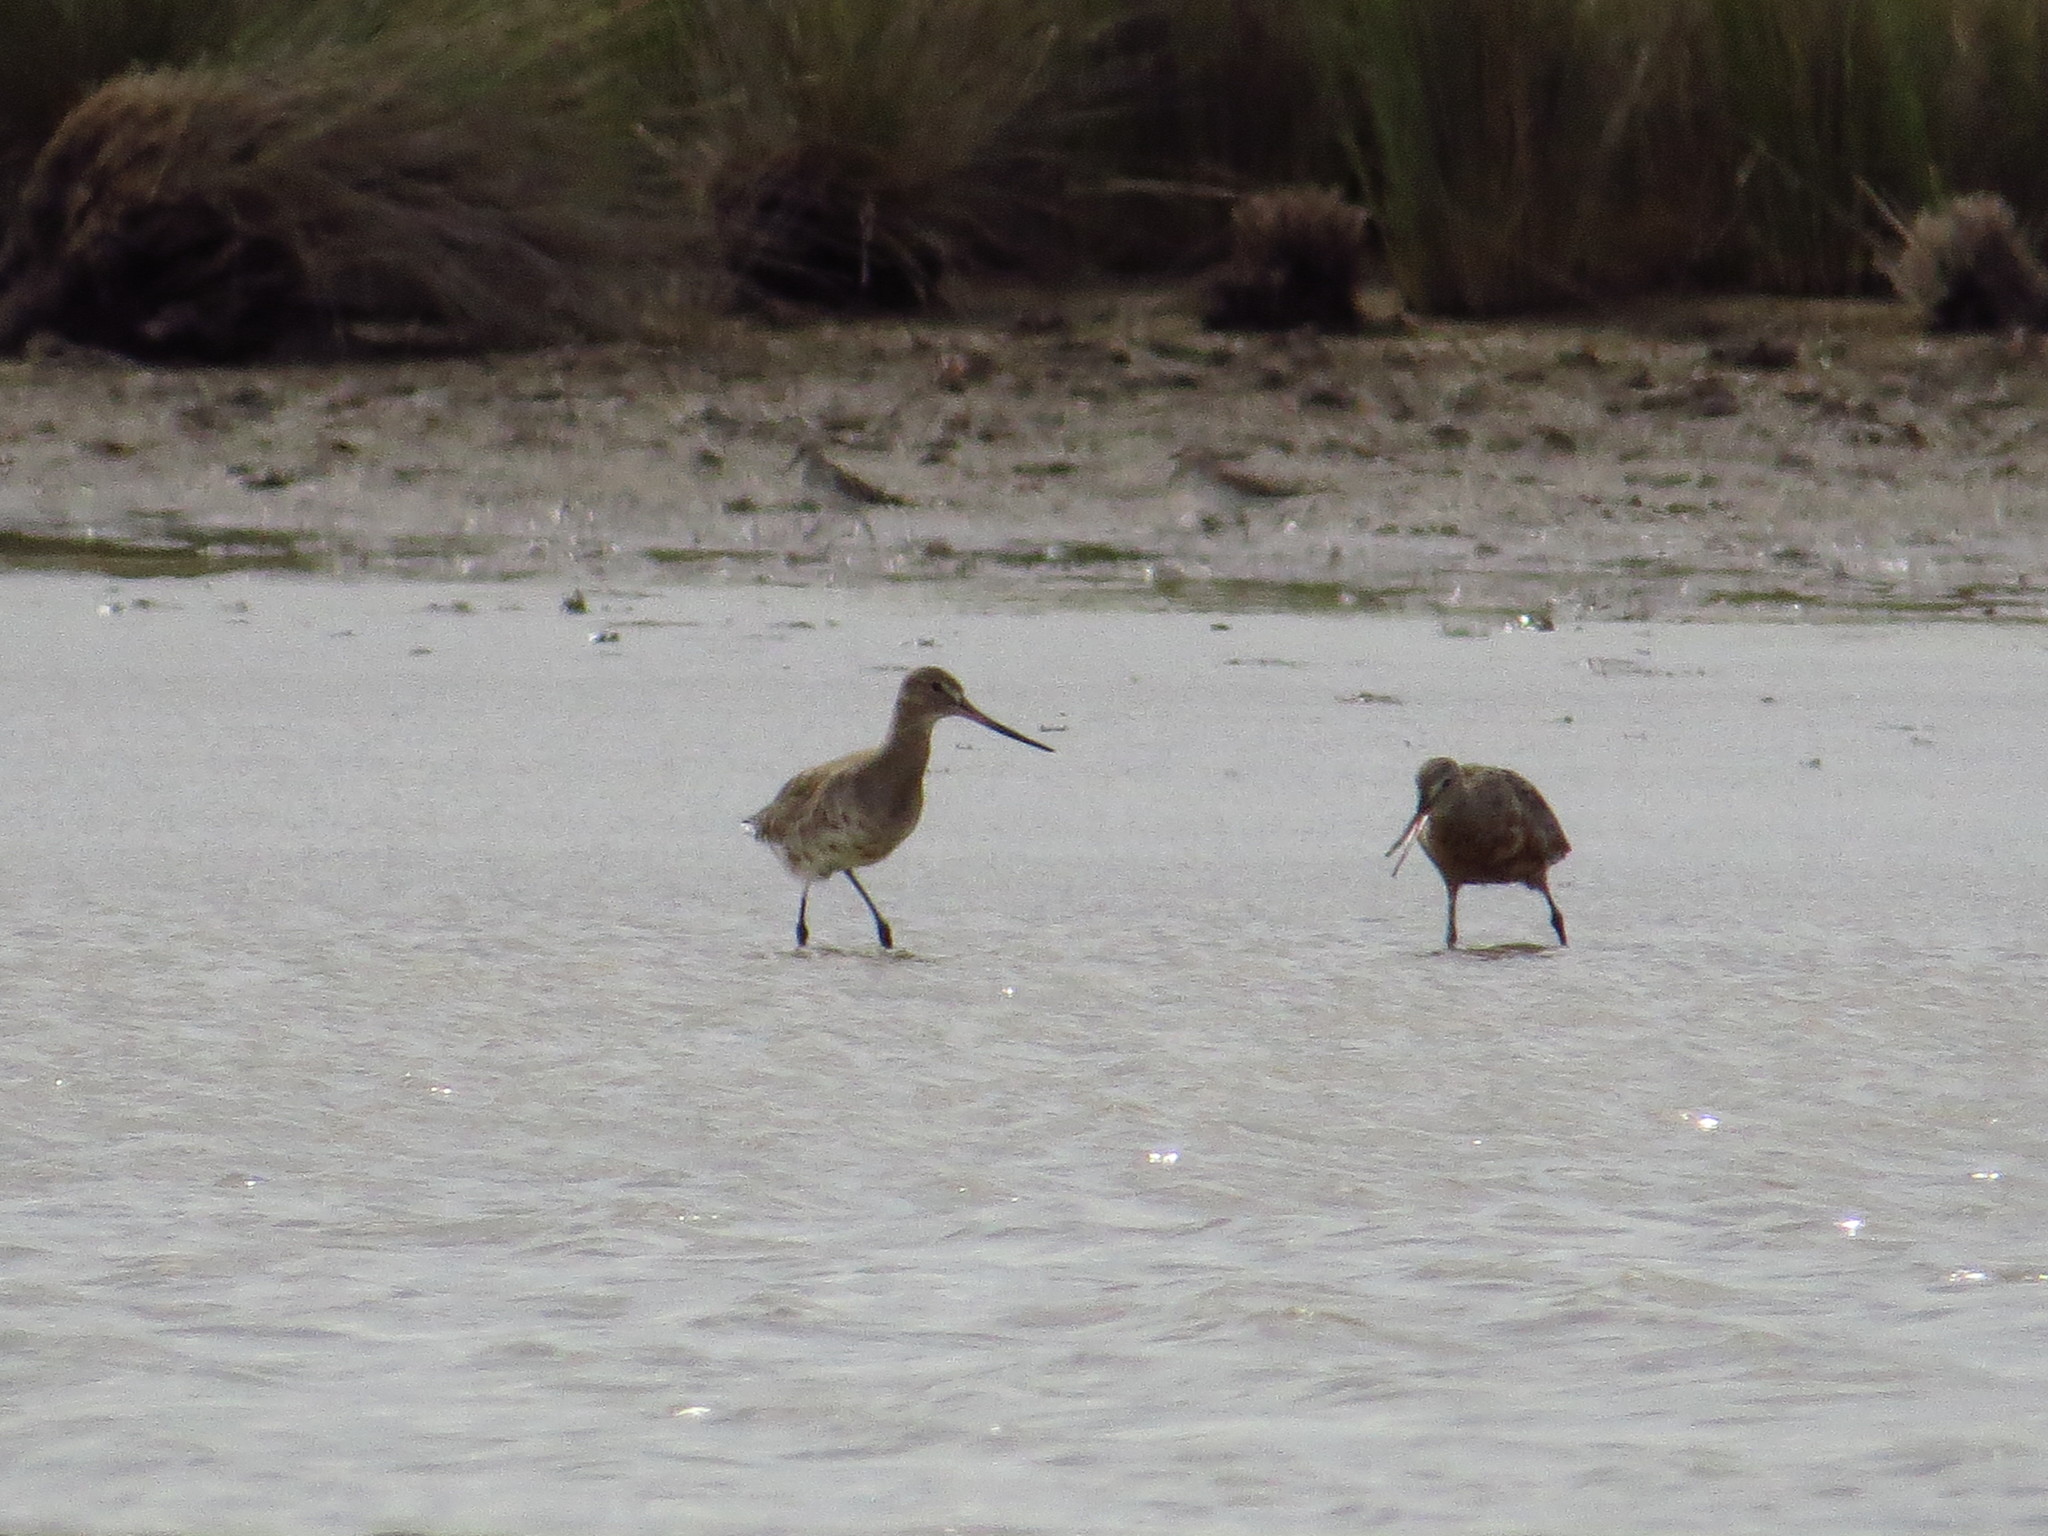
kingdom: Animalia
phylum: Chordata
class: Aves
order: Charadriiformes
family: Scolopacidae
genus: Limosa
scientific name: Limosa haemastica
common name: Hudsonian godwit
